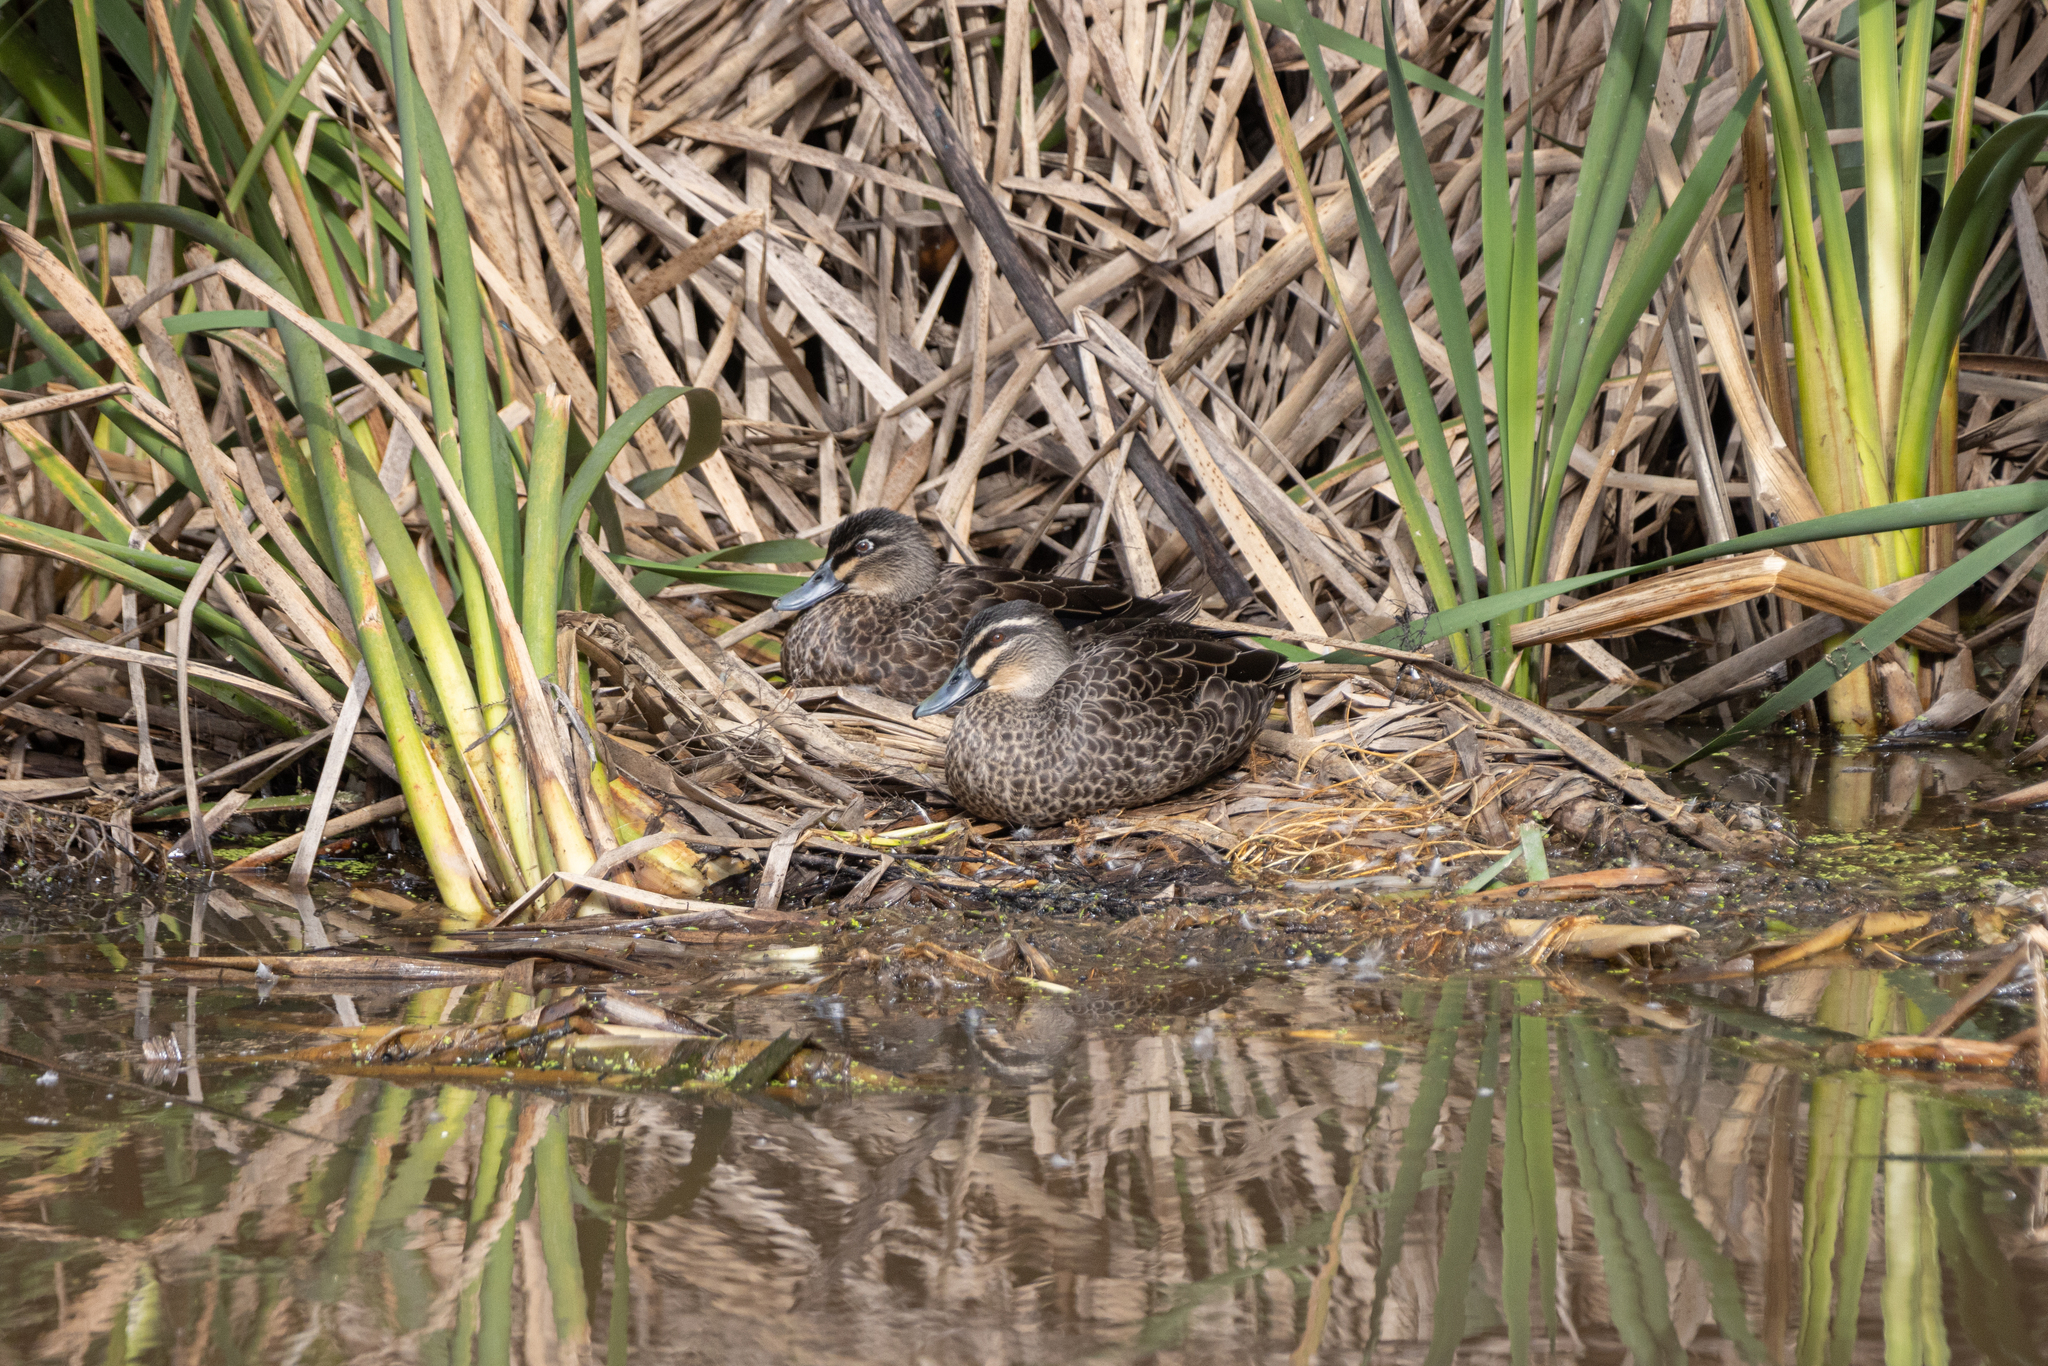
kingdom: Animalia
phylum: Chordata
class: Aves
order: Anseriformes
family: Anatidae
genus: Anas
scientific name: Anas
